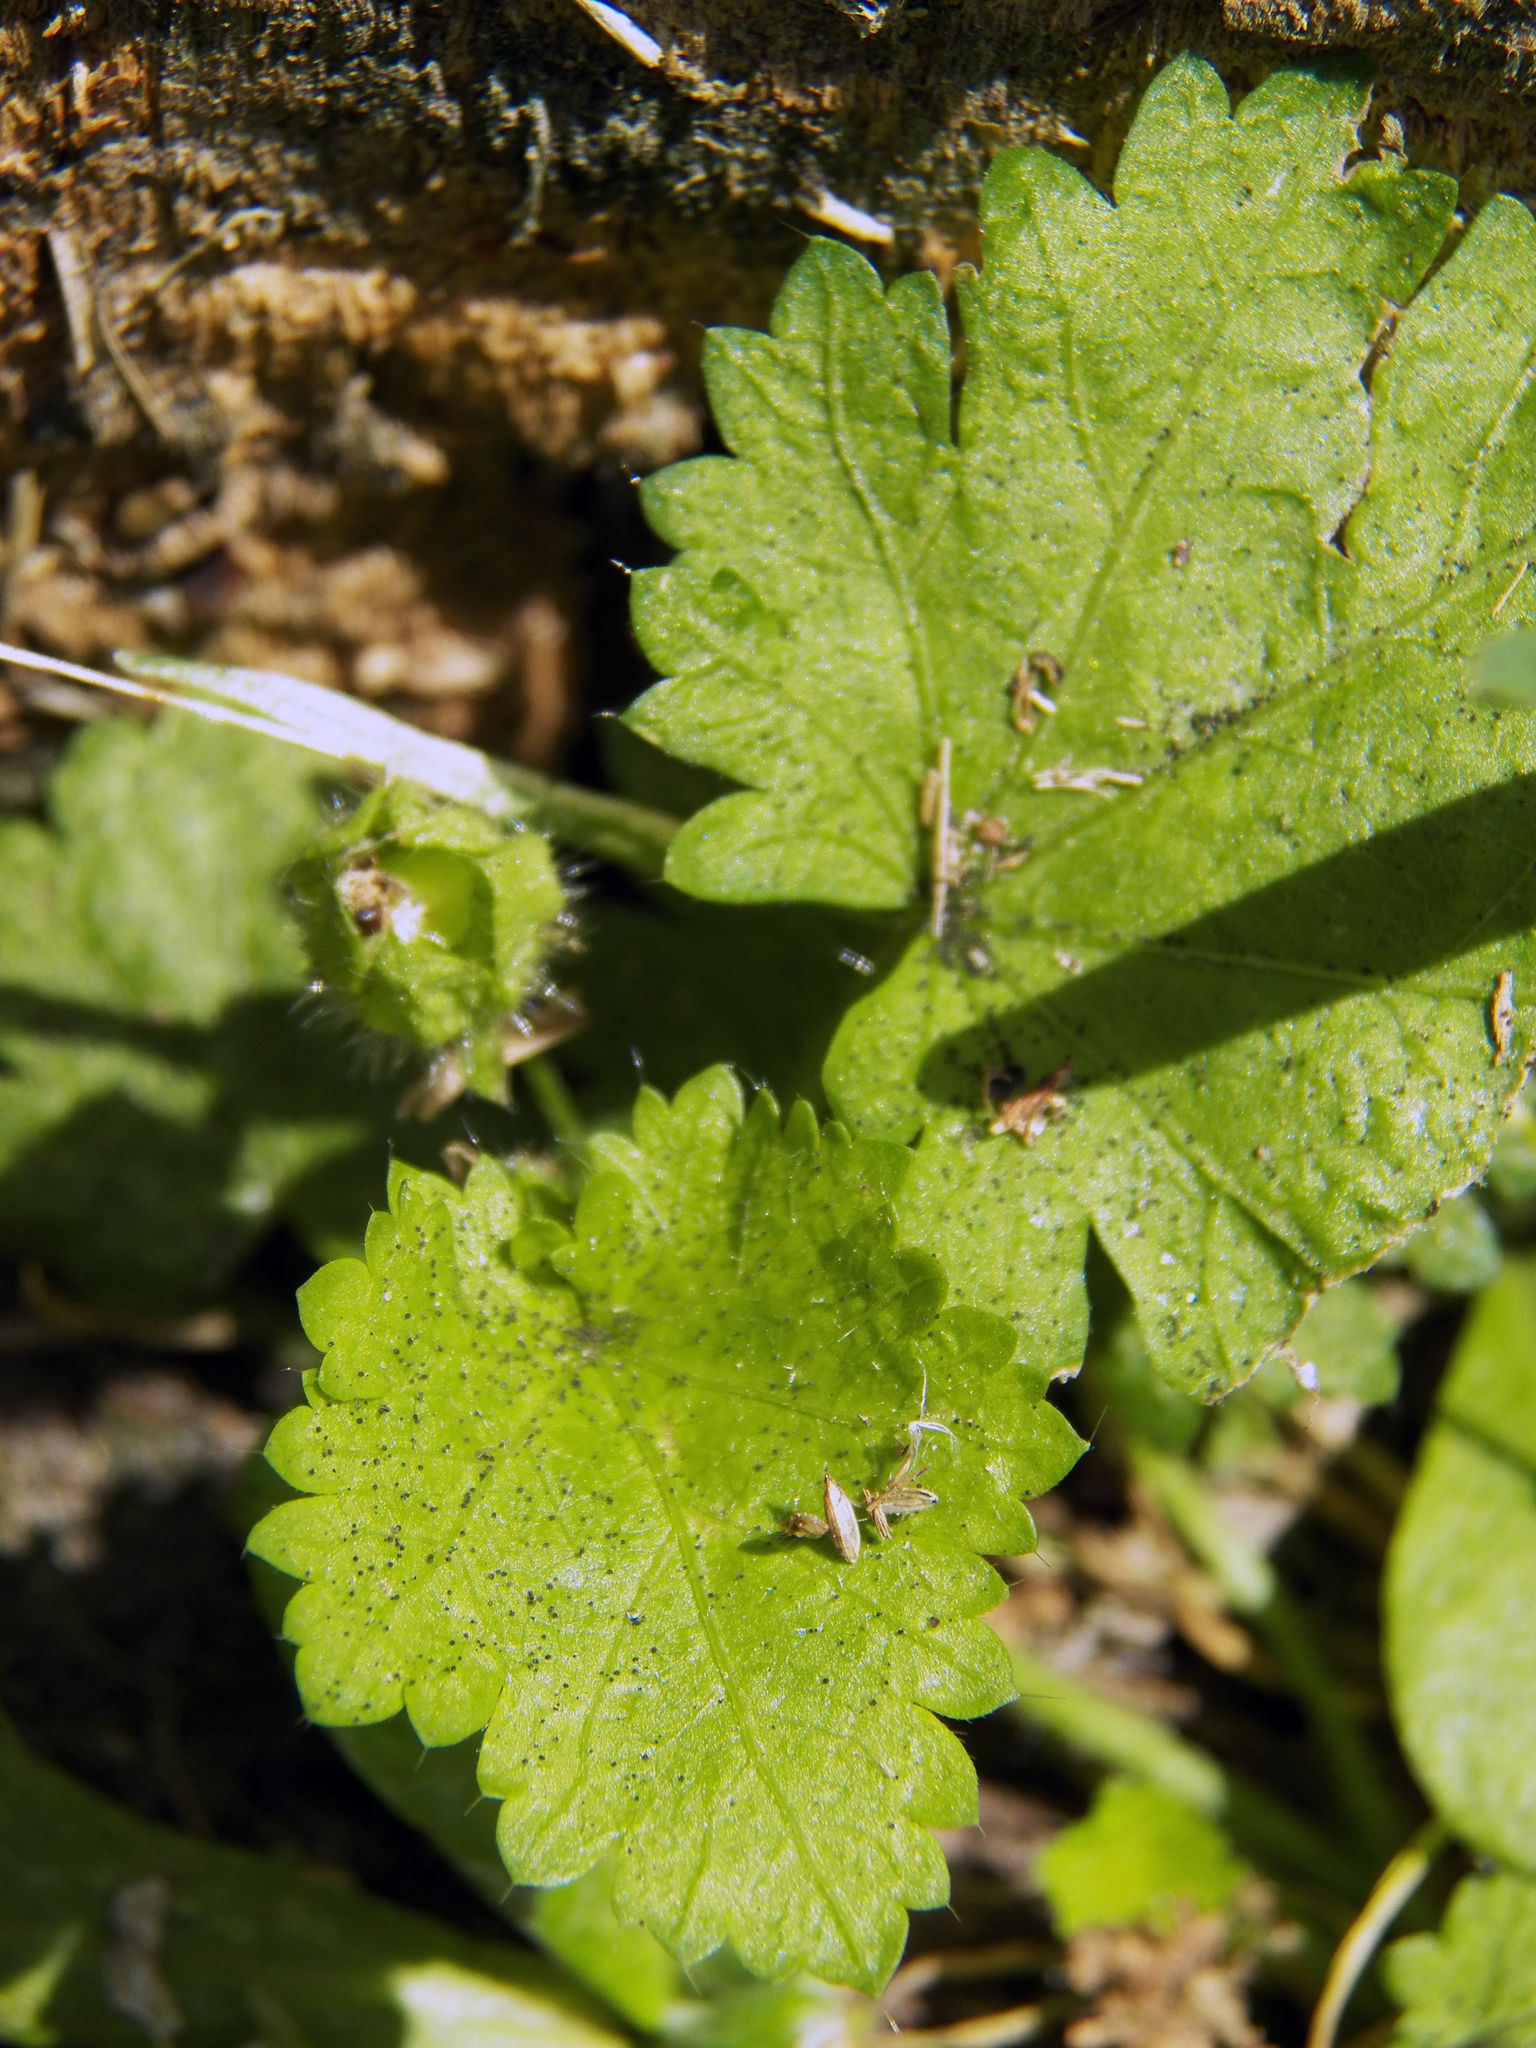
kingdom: Plantae
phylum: Tracheophyta
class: Magnoliopsida
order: Malvales
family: Malvaceae
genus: Modiola
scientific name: Modiola caroliniana
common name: Carolina bristlemallow
